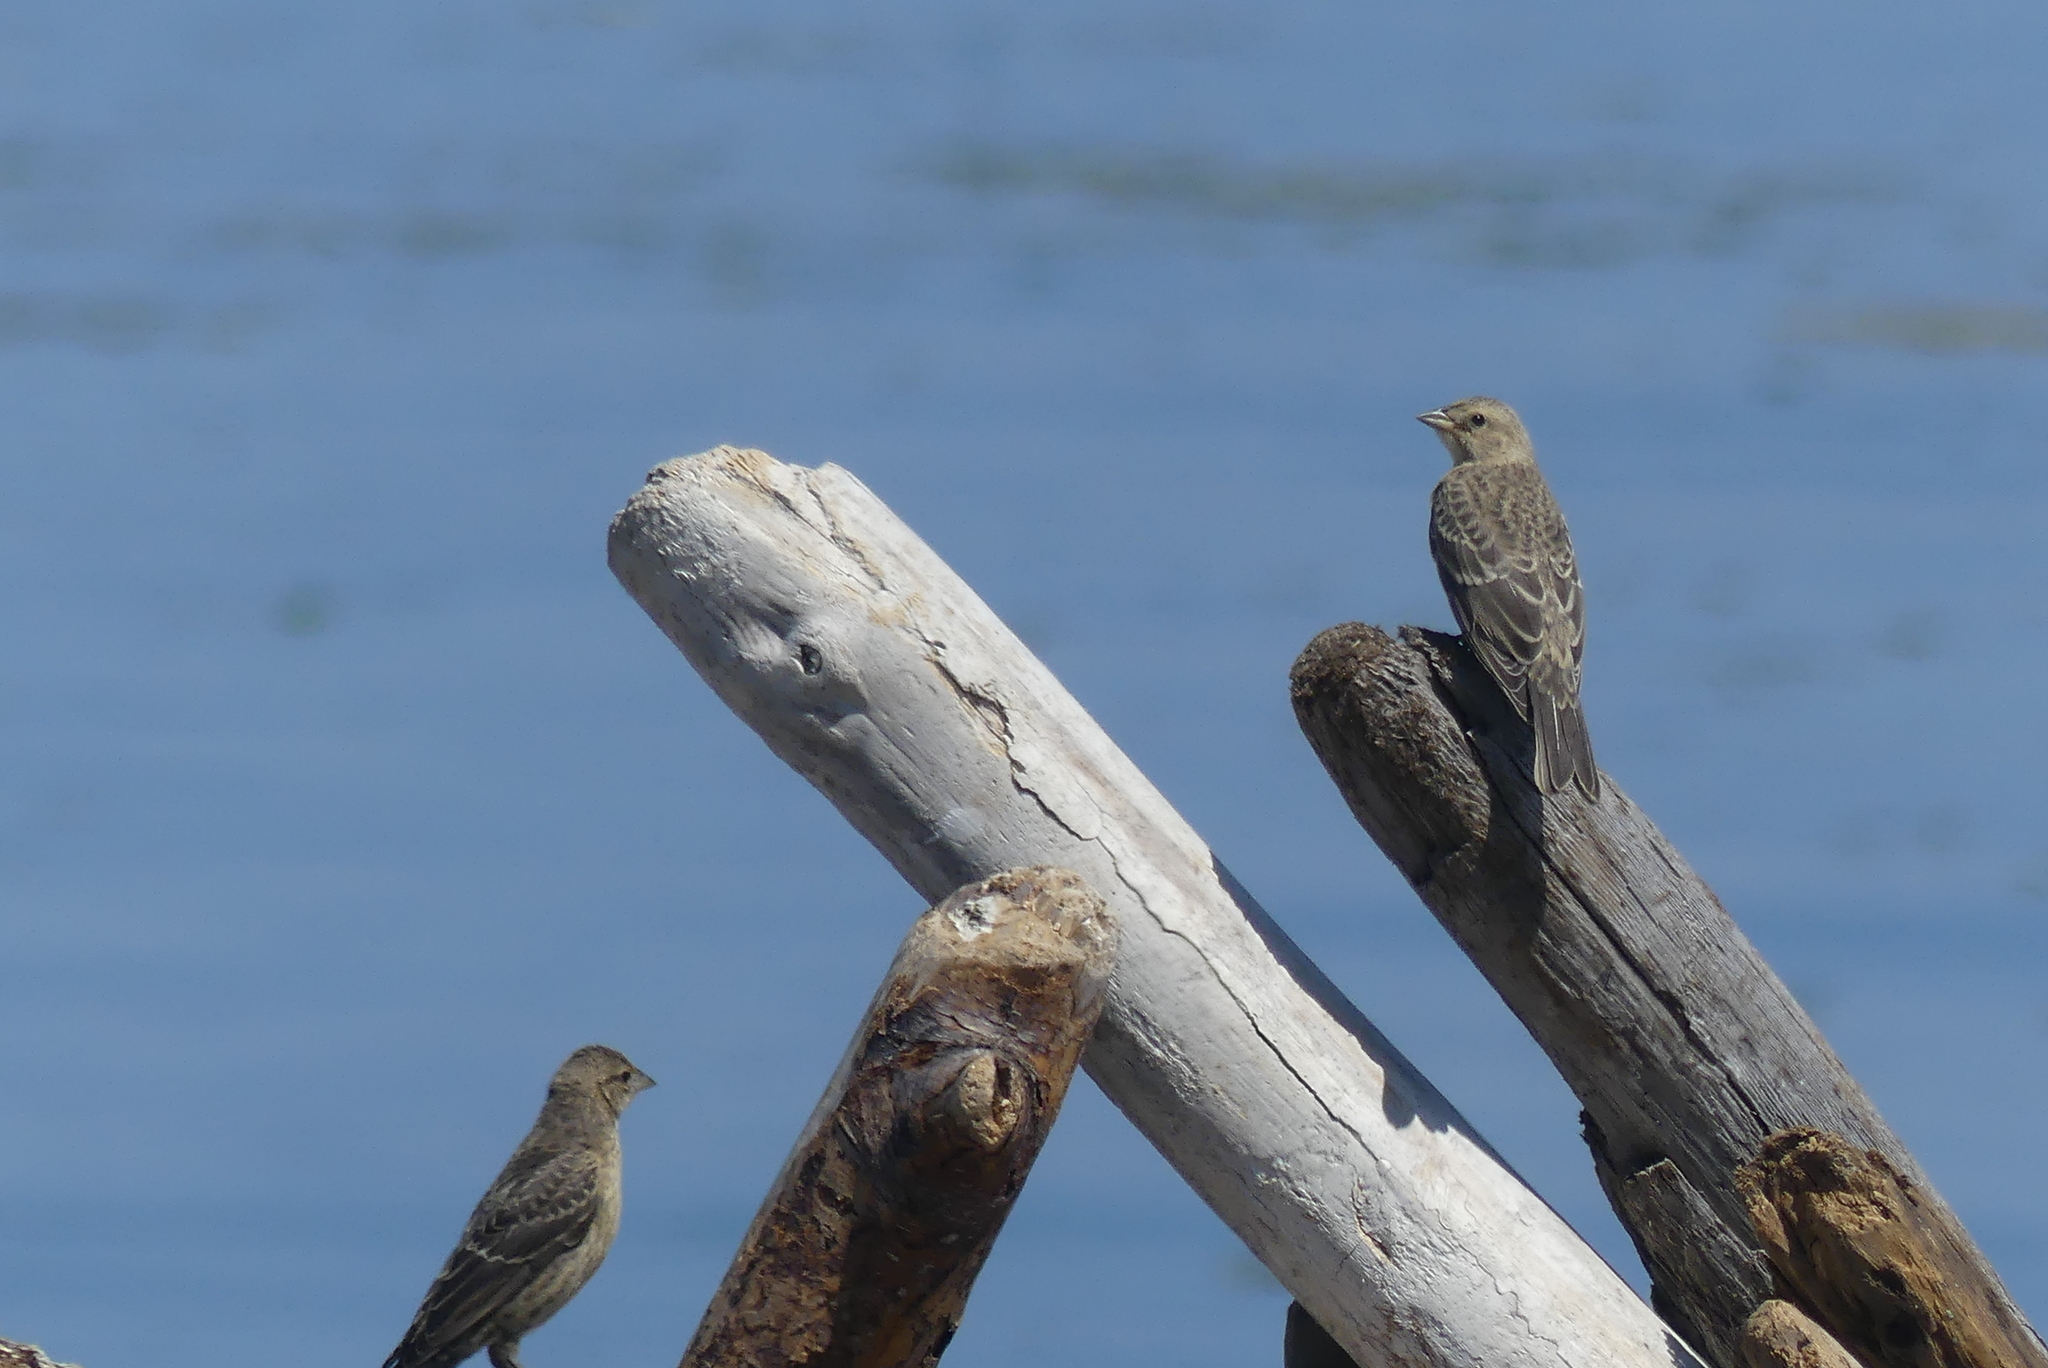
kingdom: Animalia
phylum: Chordata
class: Aves
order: Passeriformes
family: Icteridae
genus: Molothrus
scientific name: Molothrus ater
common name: Brown-headed cowbird
